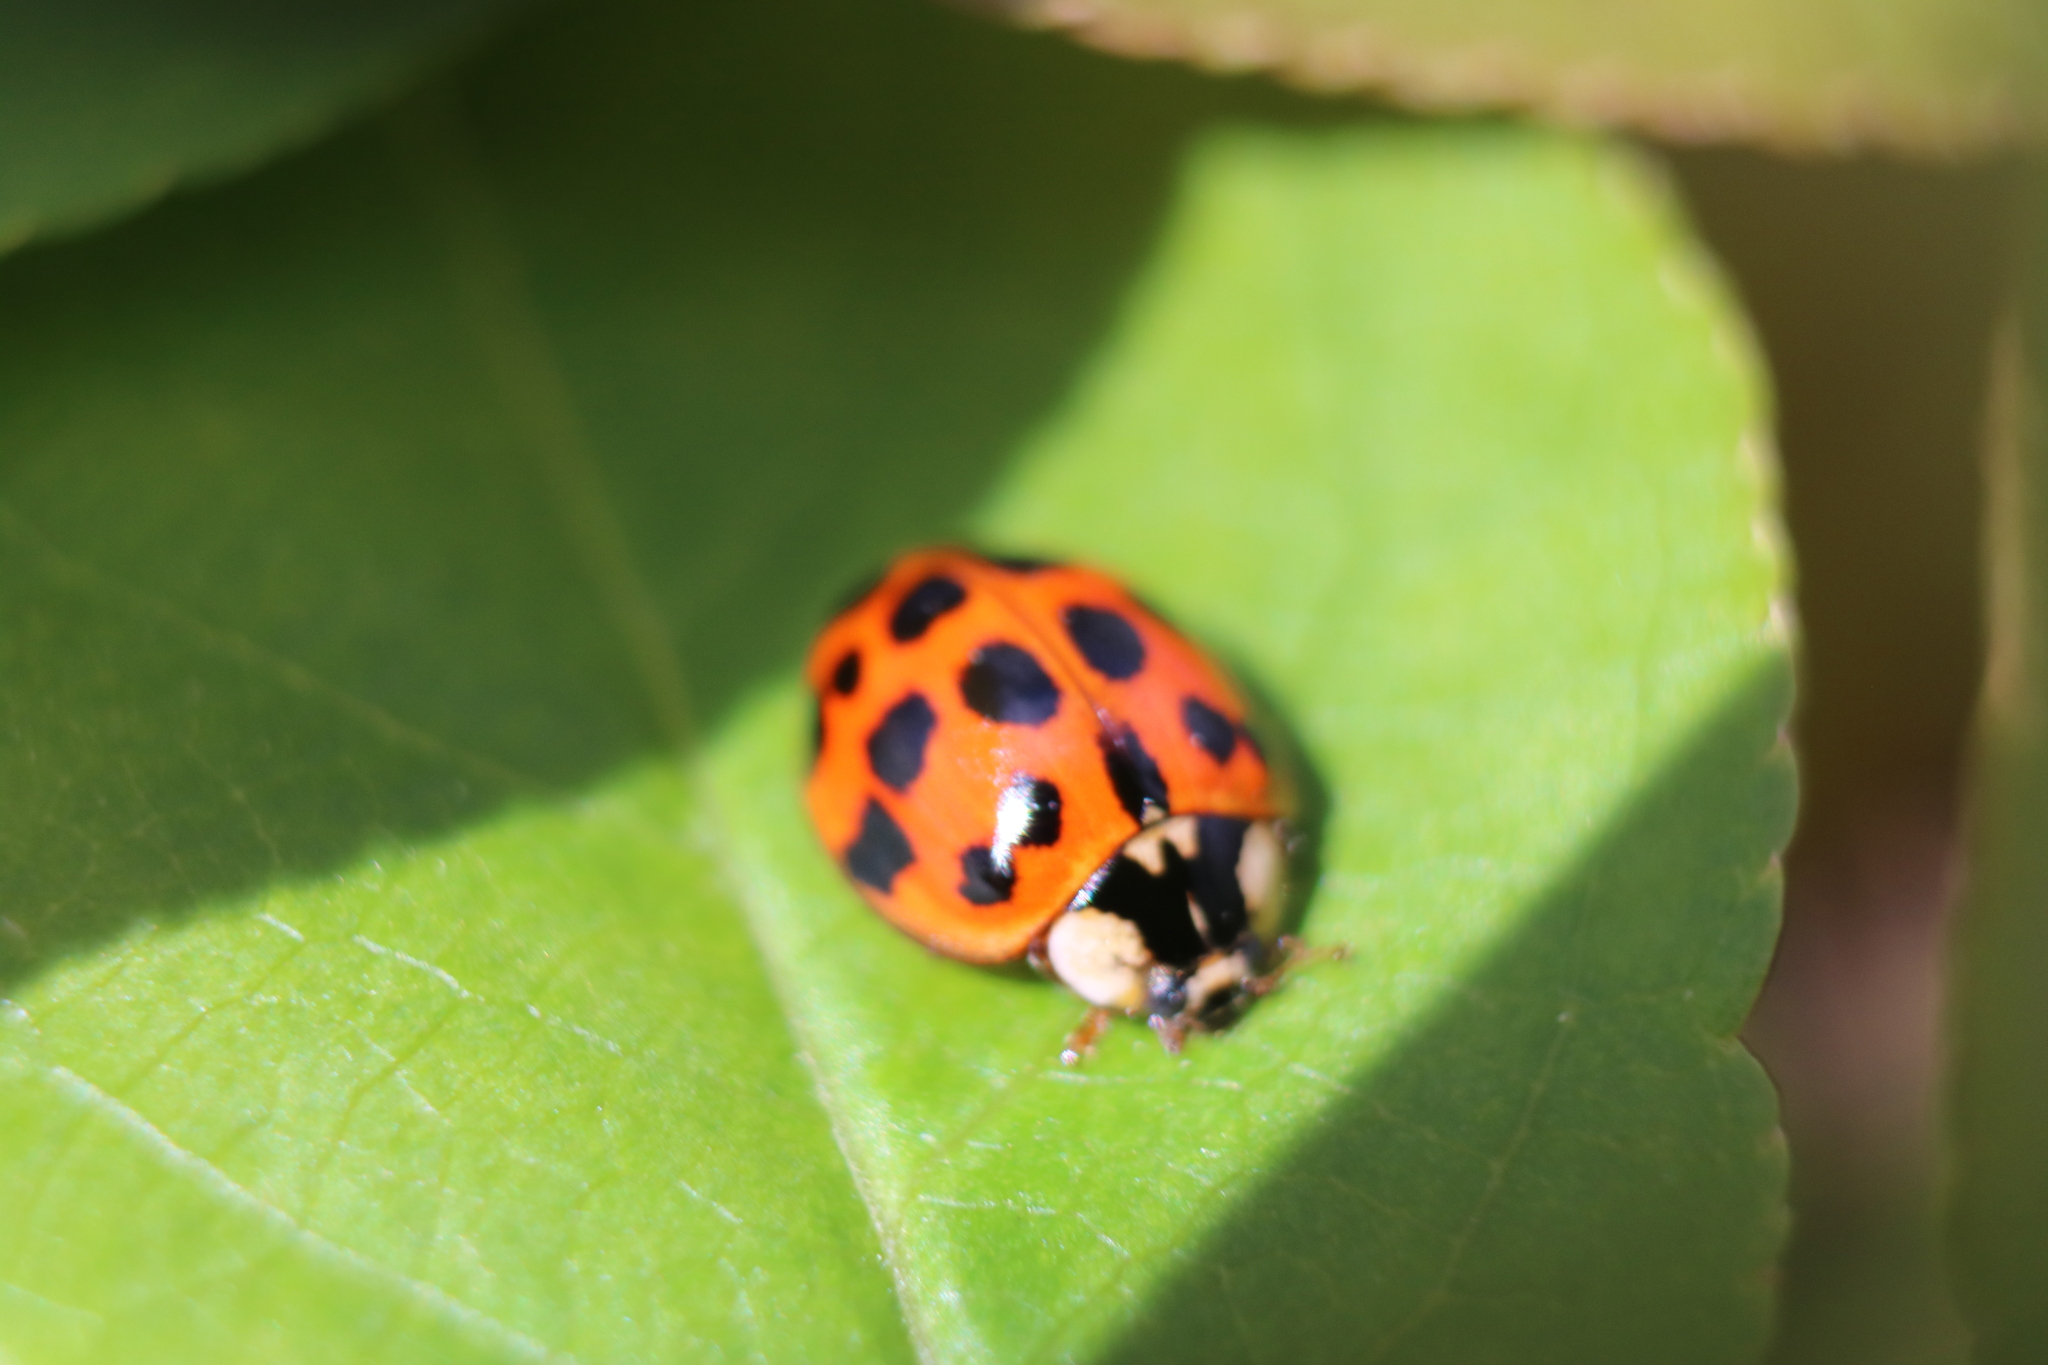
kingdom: Animalia
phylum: Arthropoda
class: Insecta
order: Coleoptera
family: Coccinellidae
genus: Harmonia
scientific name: Harmonia axyridis
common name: Harlequin ladybird
